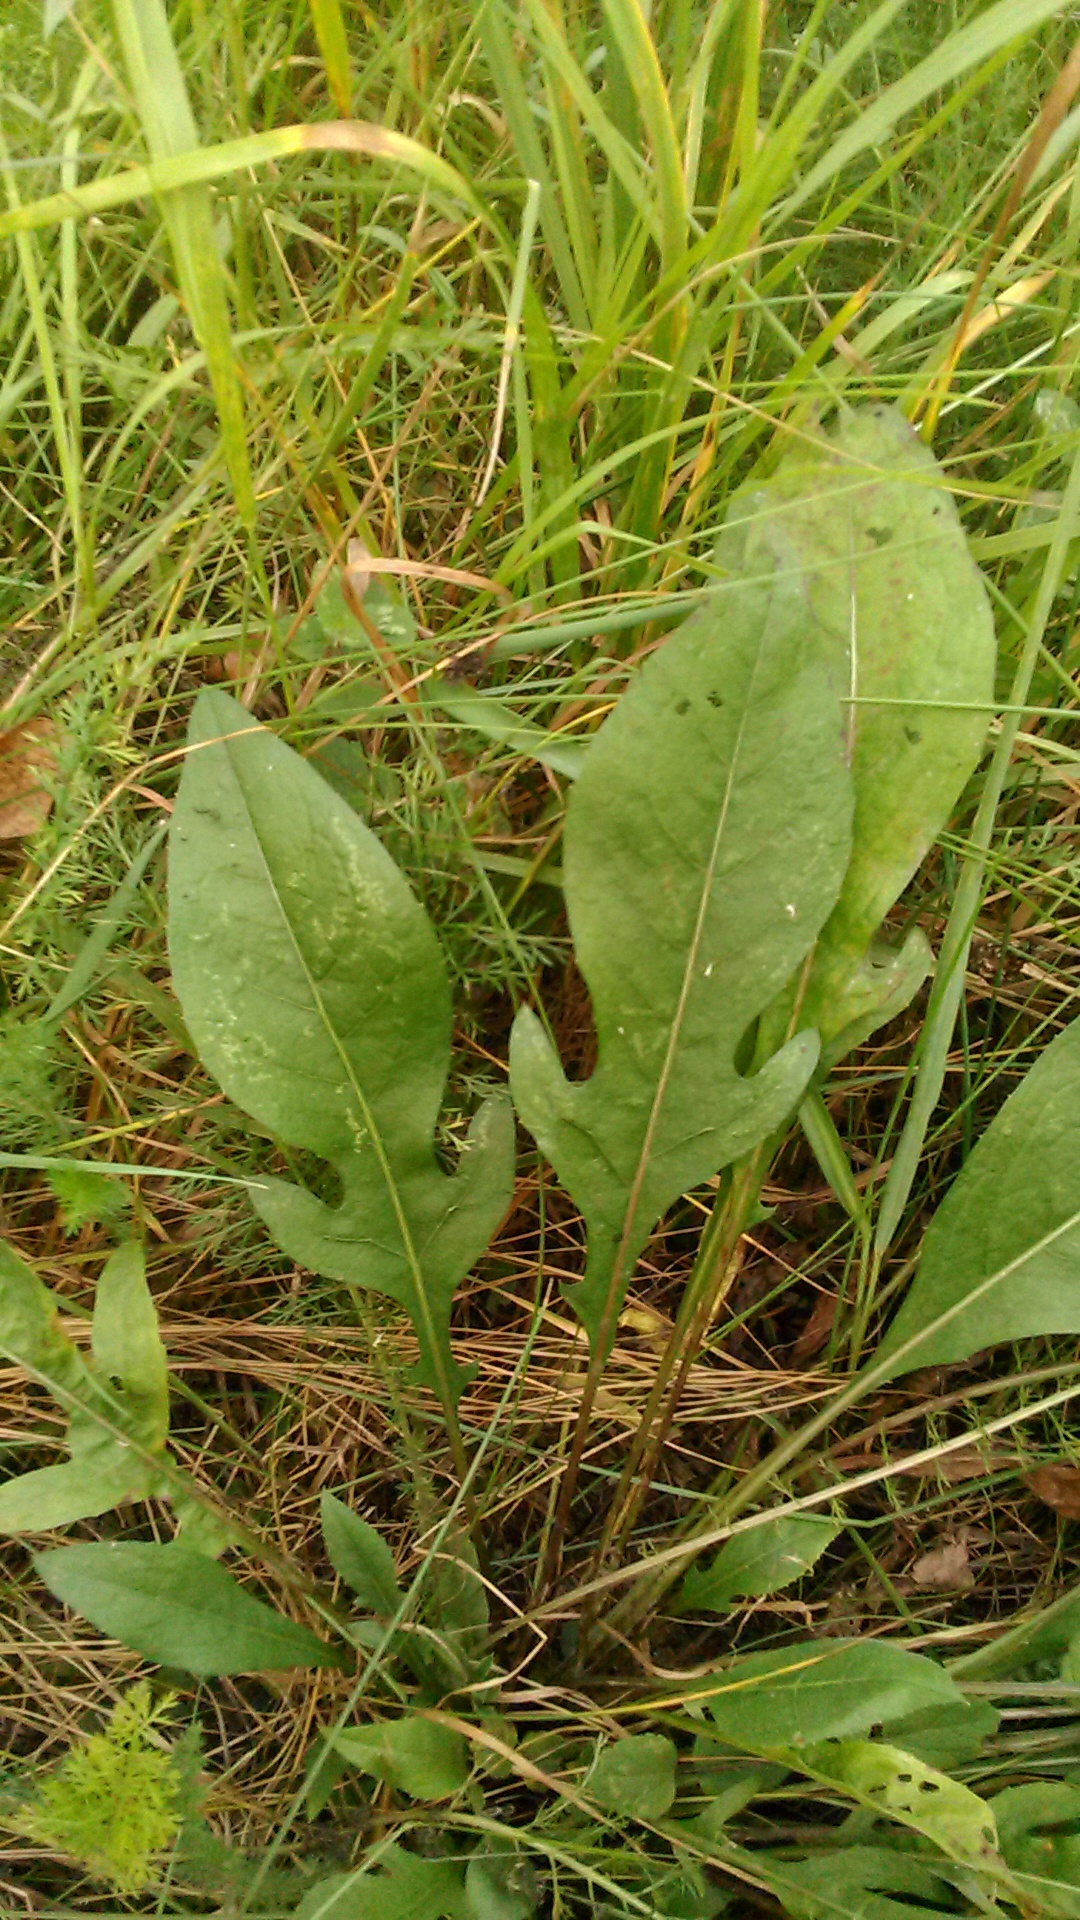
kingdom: Plantae
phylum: Tracheophyta
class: Magnoliopsida
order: Asterales
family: Asteraceae
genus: Centaurea
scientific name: Centaurea jacea
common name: Brown knapweed
